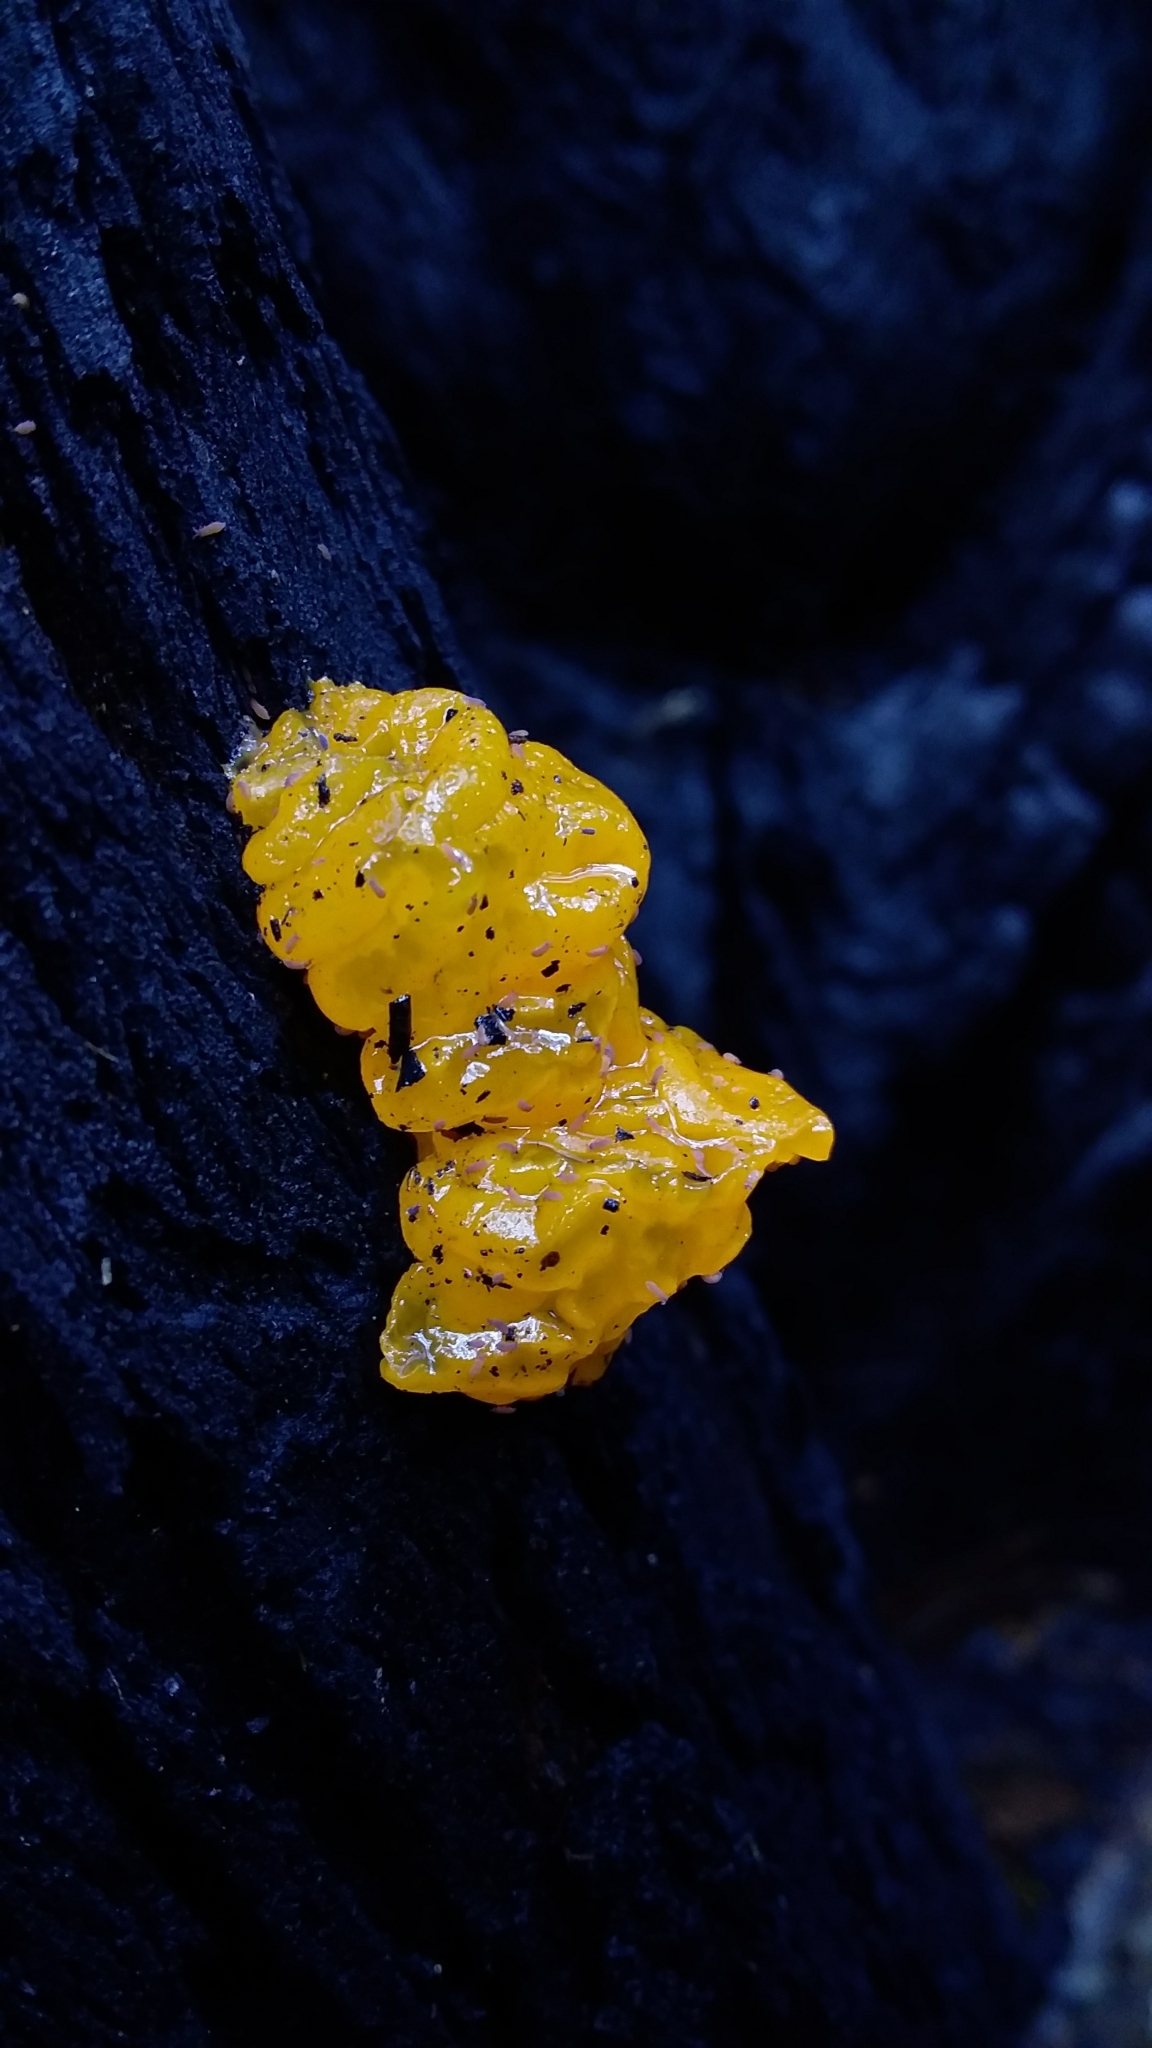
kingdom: Fungi
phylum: Basidiomycota
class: Tremellomycetes
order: Tremellales
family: Tremellaceae
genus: Tremella
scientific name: Tremella mesenterica
